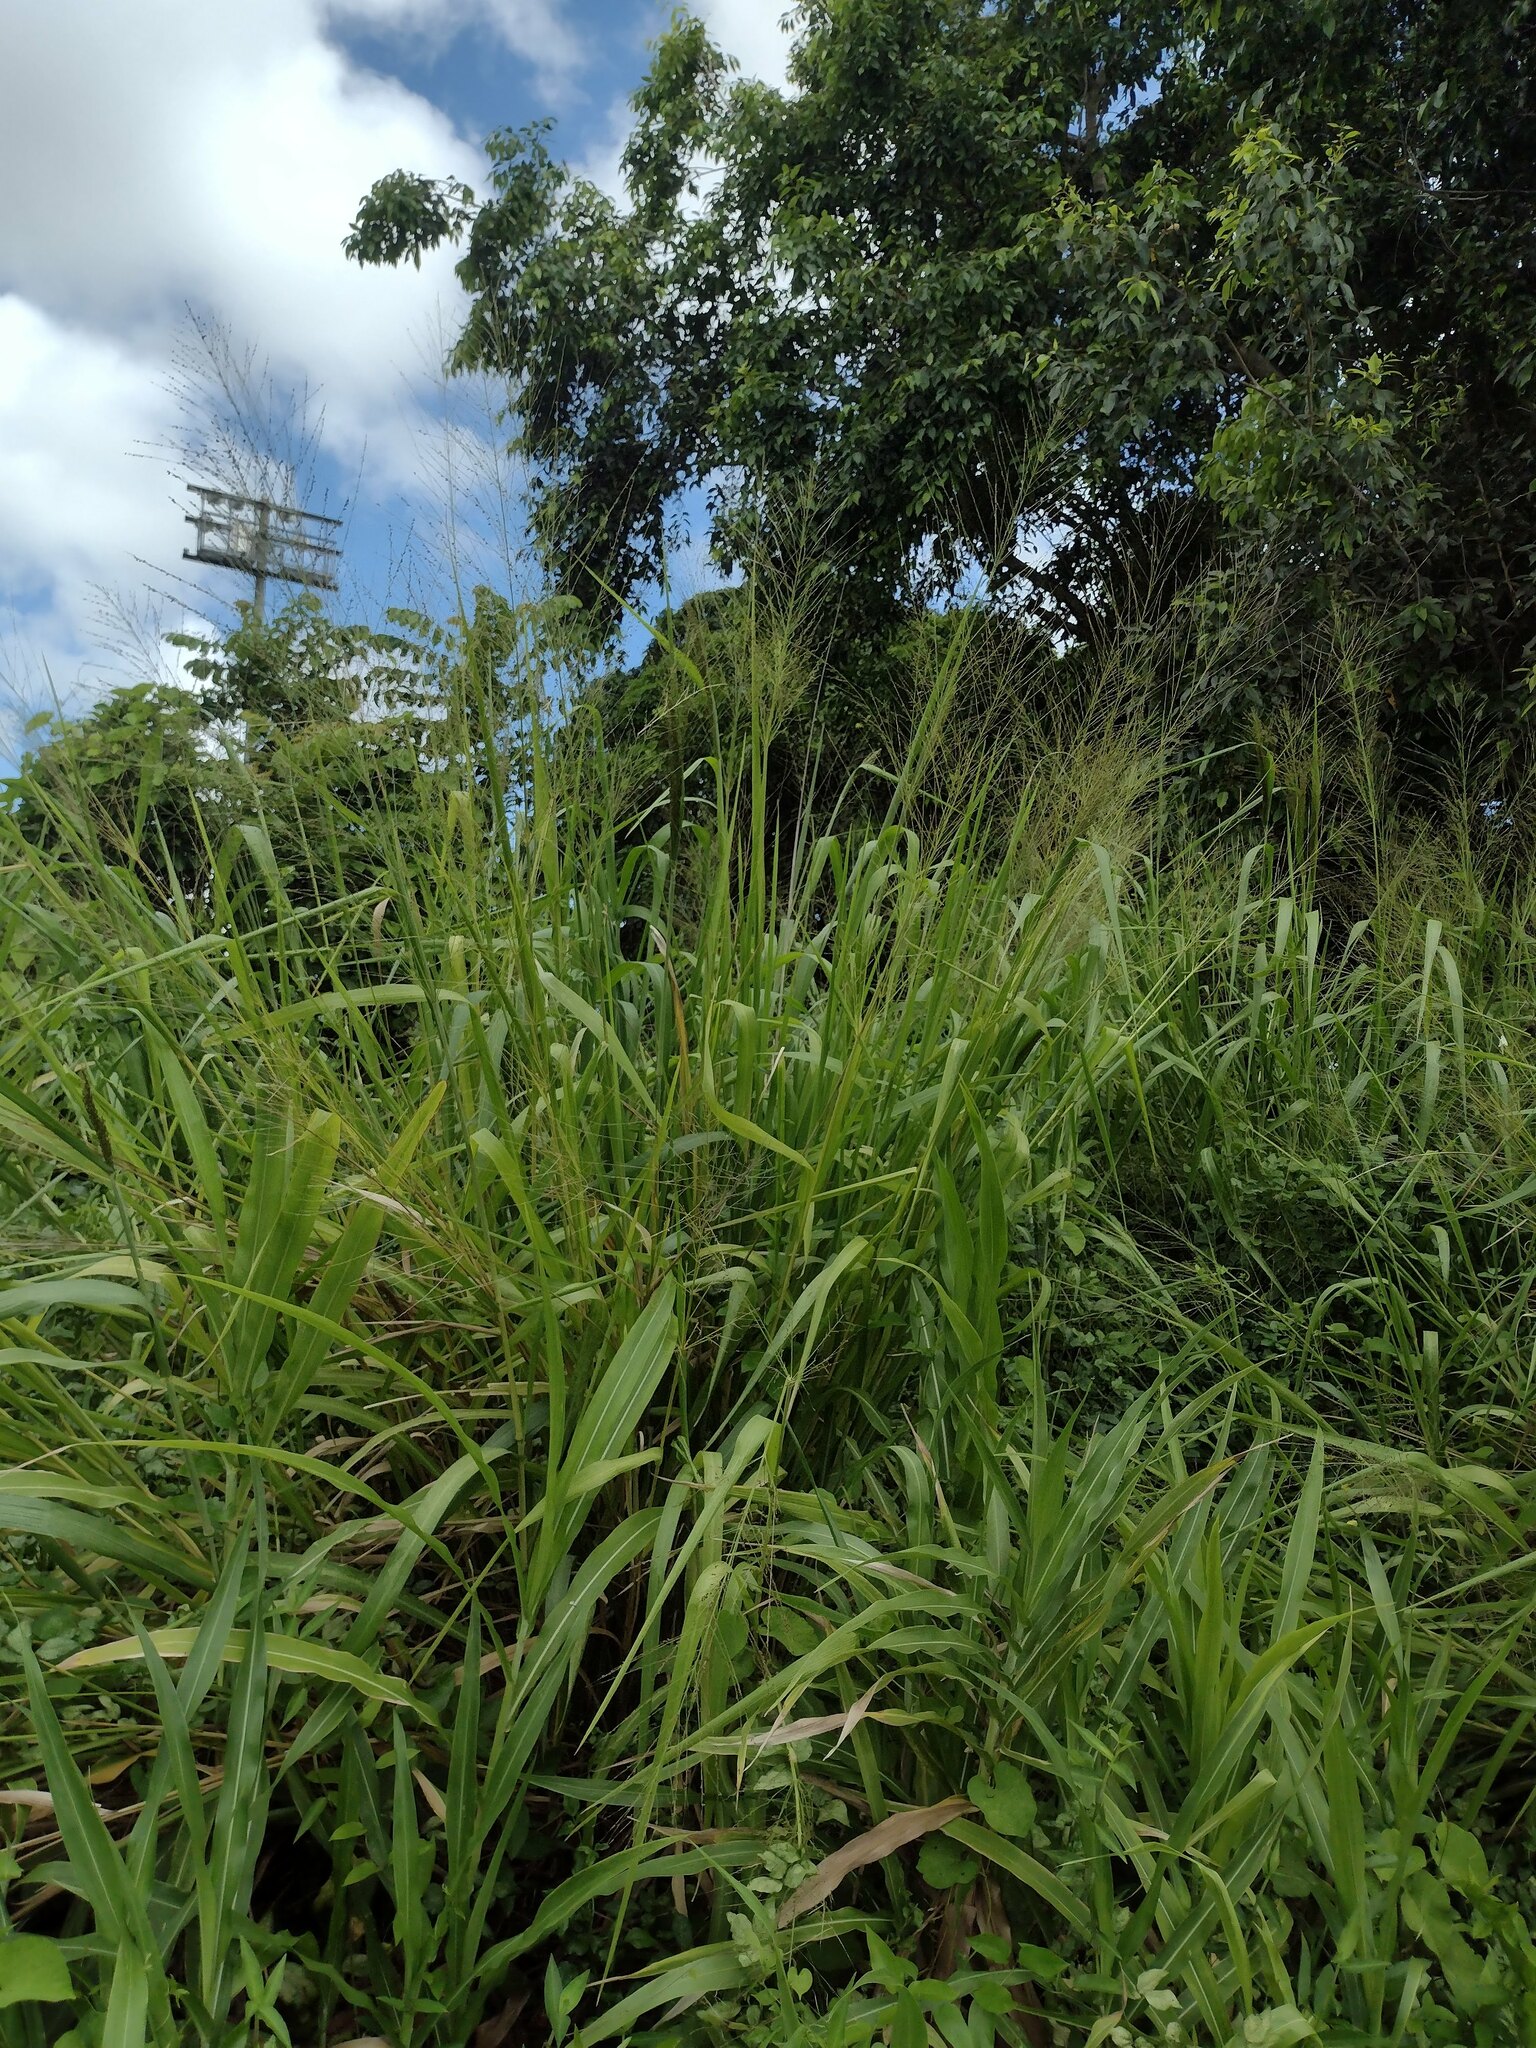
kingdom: Plantae
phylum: Tracheophyta
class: Liliopsida
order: Poales
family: Poaceae
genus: Megathyrsus
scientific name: Megathyrsus maximus
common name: Guineagrass
